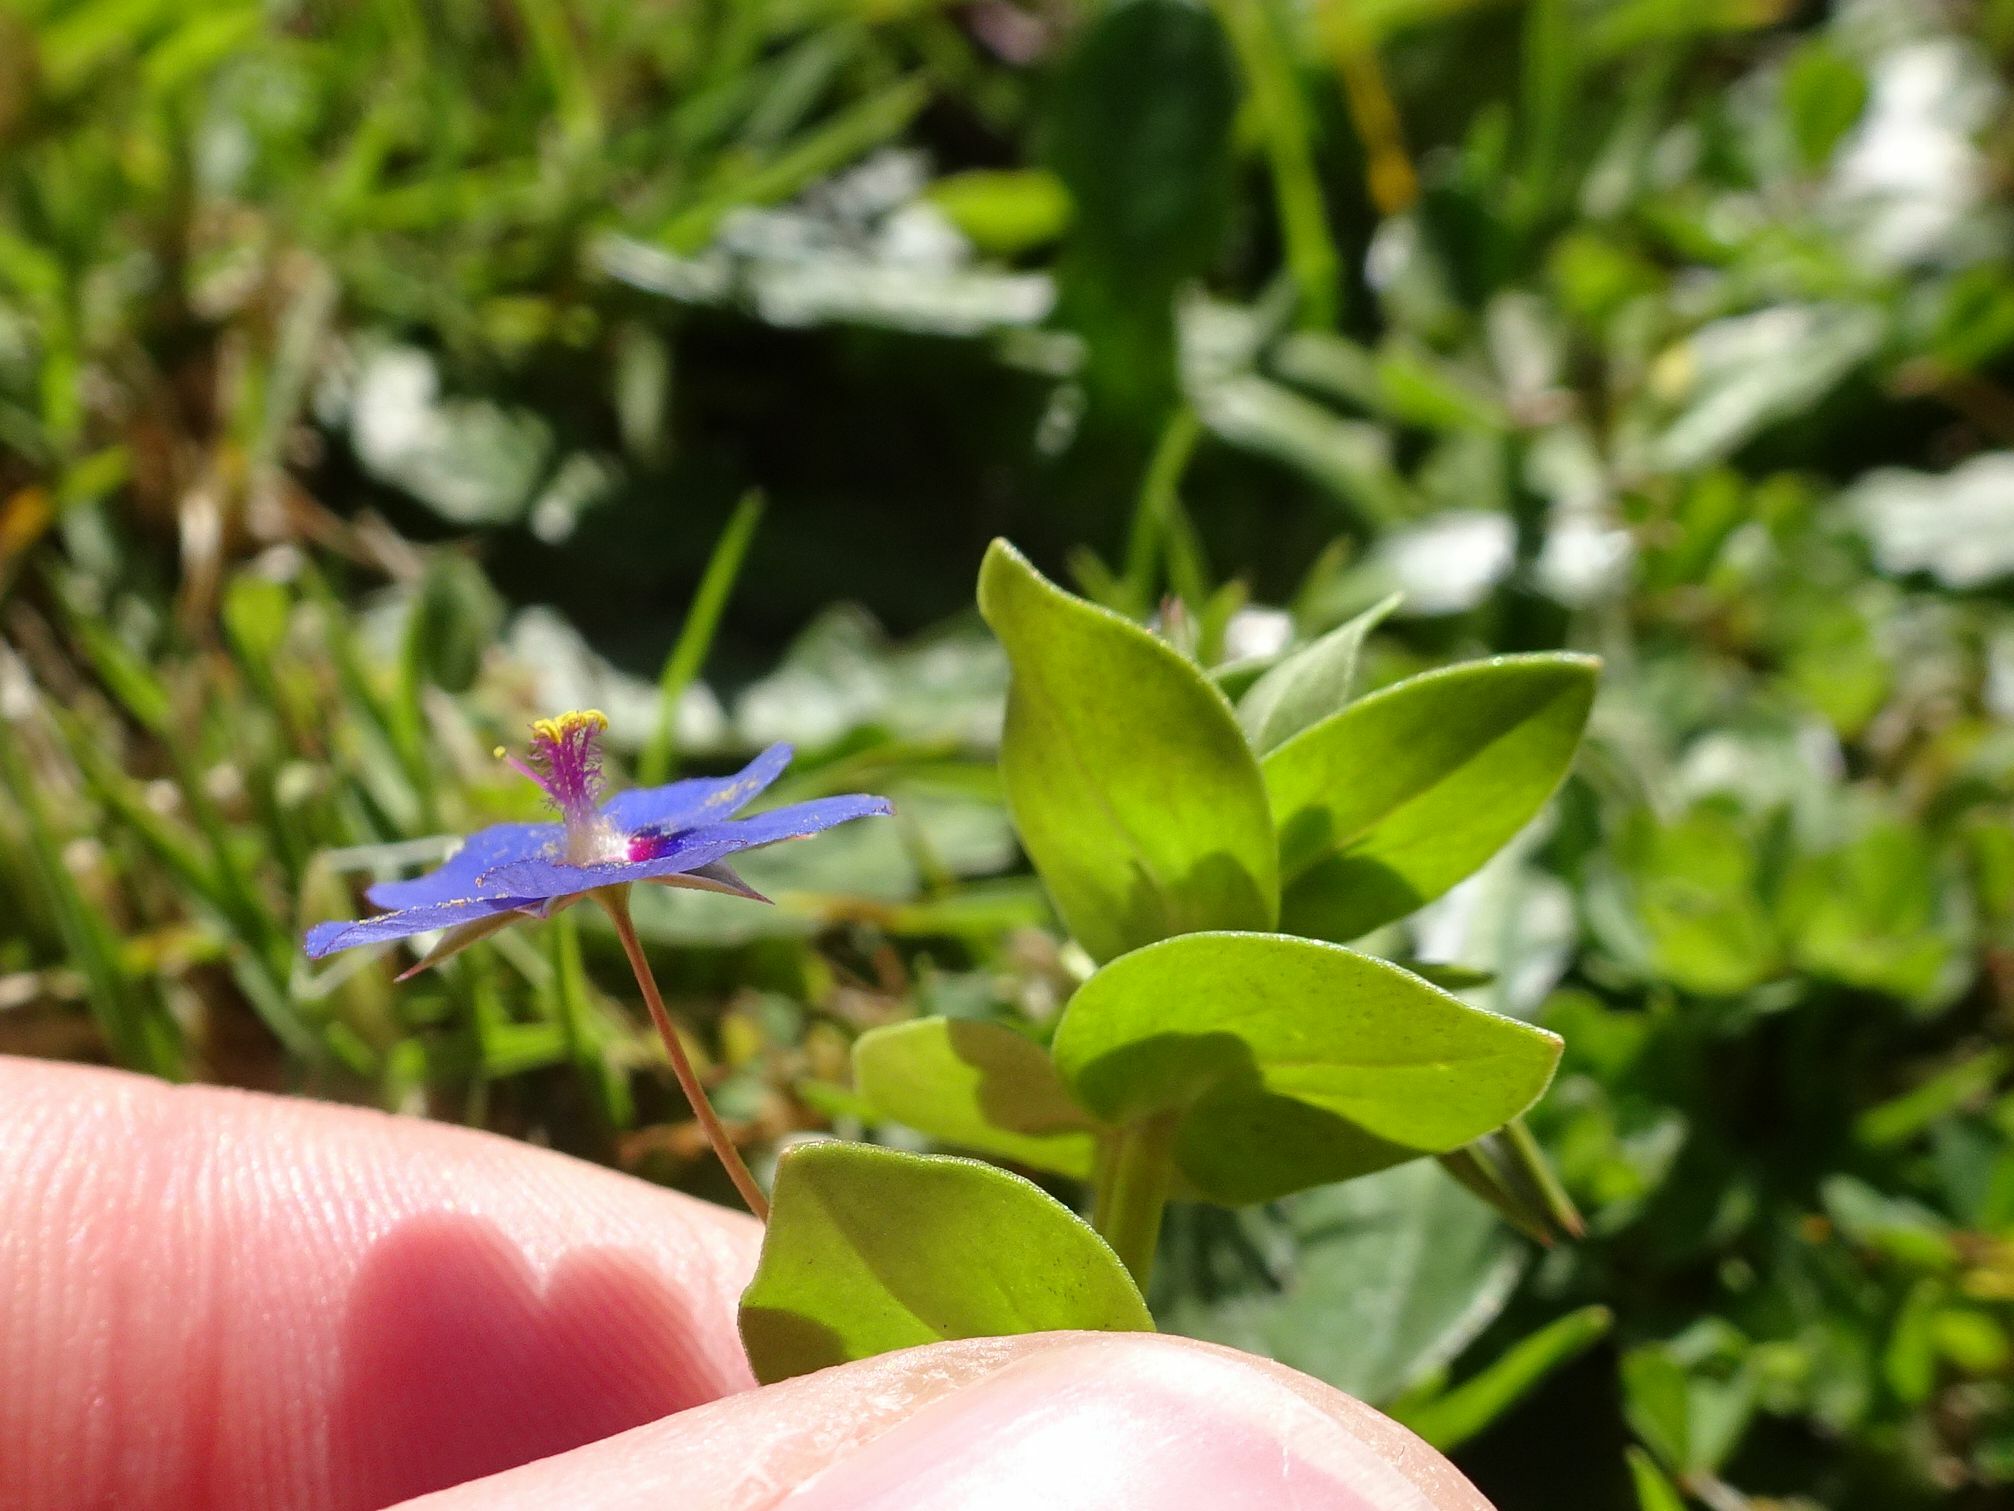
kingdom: Plantae
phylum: Tracheophyta
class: Magnoliopsida
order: Ericales
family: Primulaceae
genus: Lysimachia
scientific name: Lysimachia loeflingii
